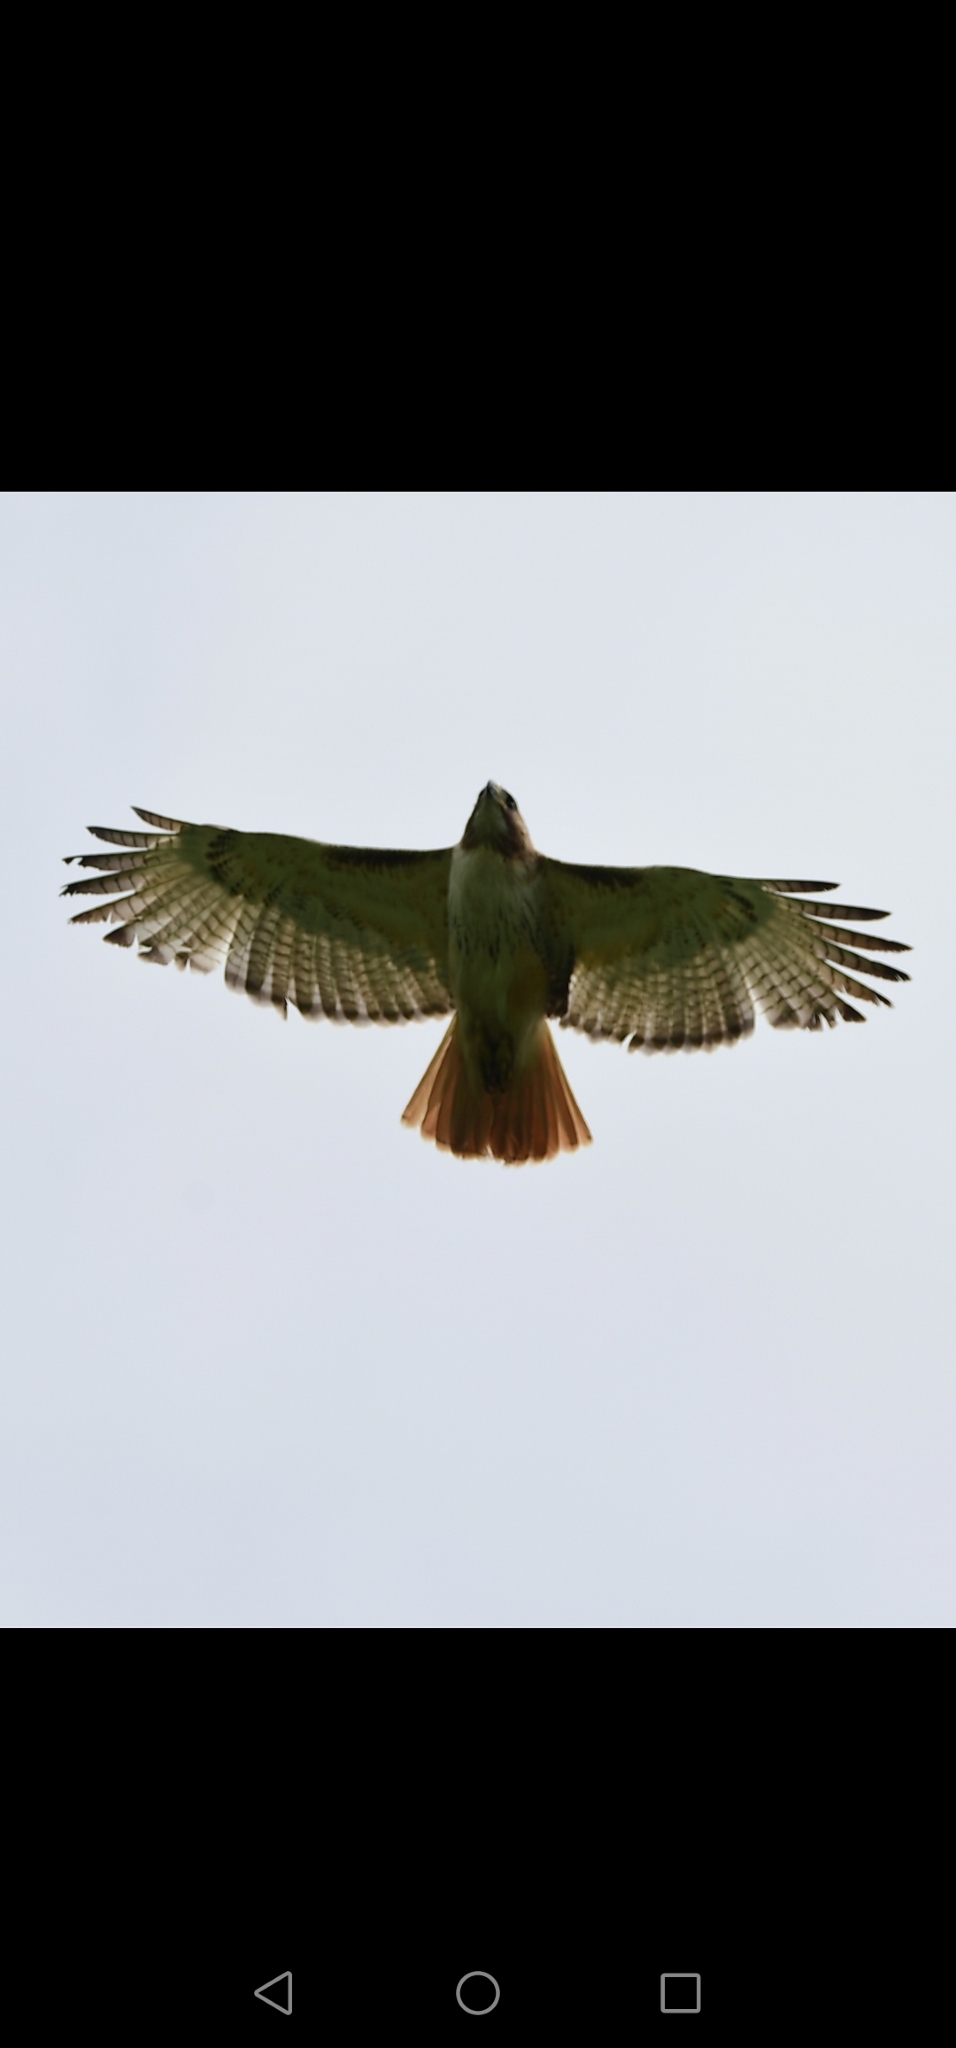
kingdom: Animalia
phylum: Chordata
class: Aves
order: Accipitriformes
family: Accipitridae
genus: Buteo
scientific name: Buteo jamaicensis
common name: Red-tailed hawk
